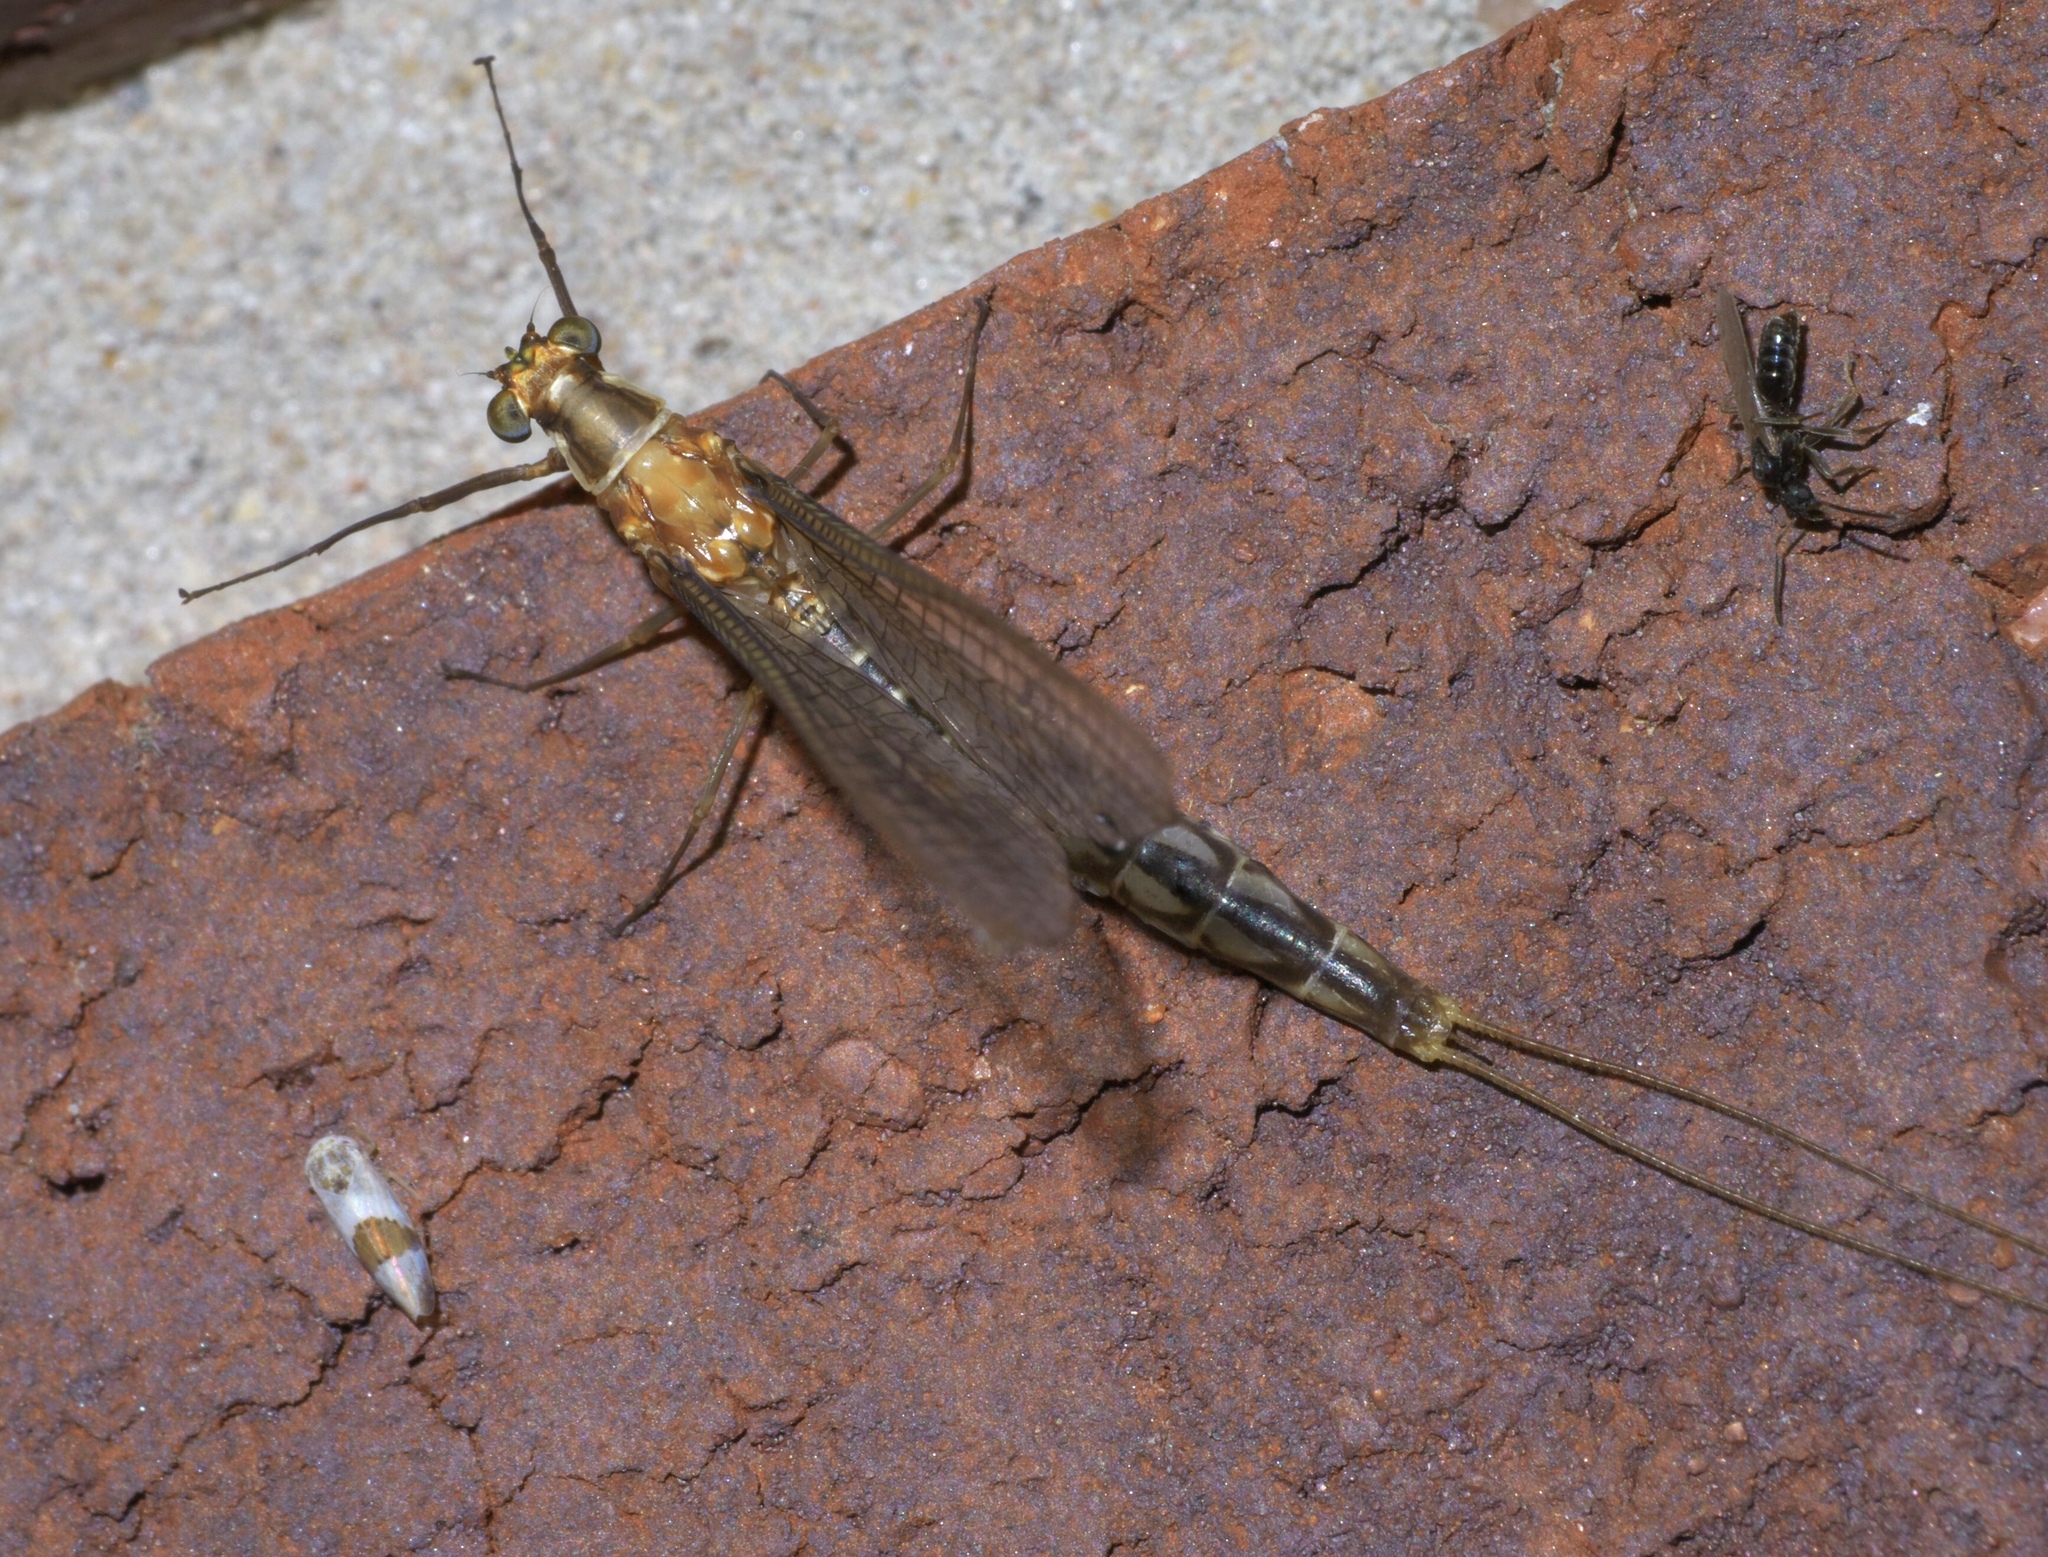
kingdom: Animalia
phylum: Arthropoda
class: Insecta
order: Ephemeroptera
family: Ephemeridae
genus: Hexagenia
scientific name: Hexagenia bilineata
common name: Emergent mayfly
